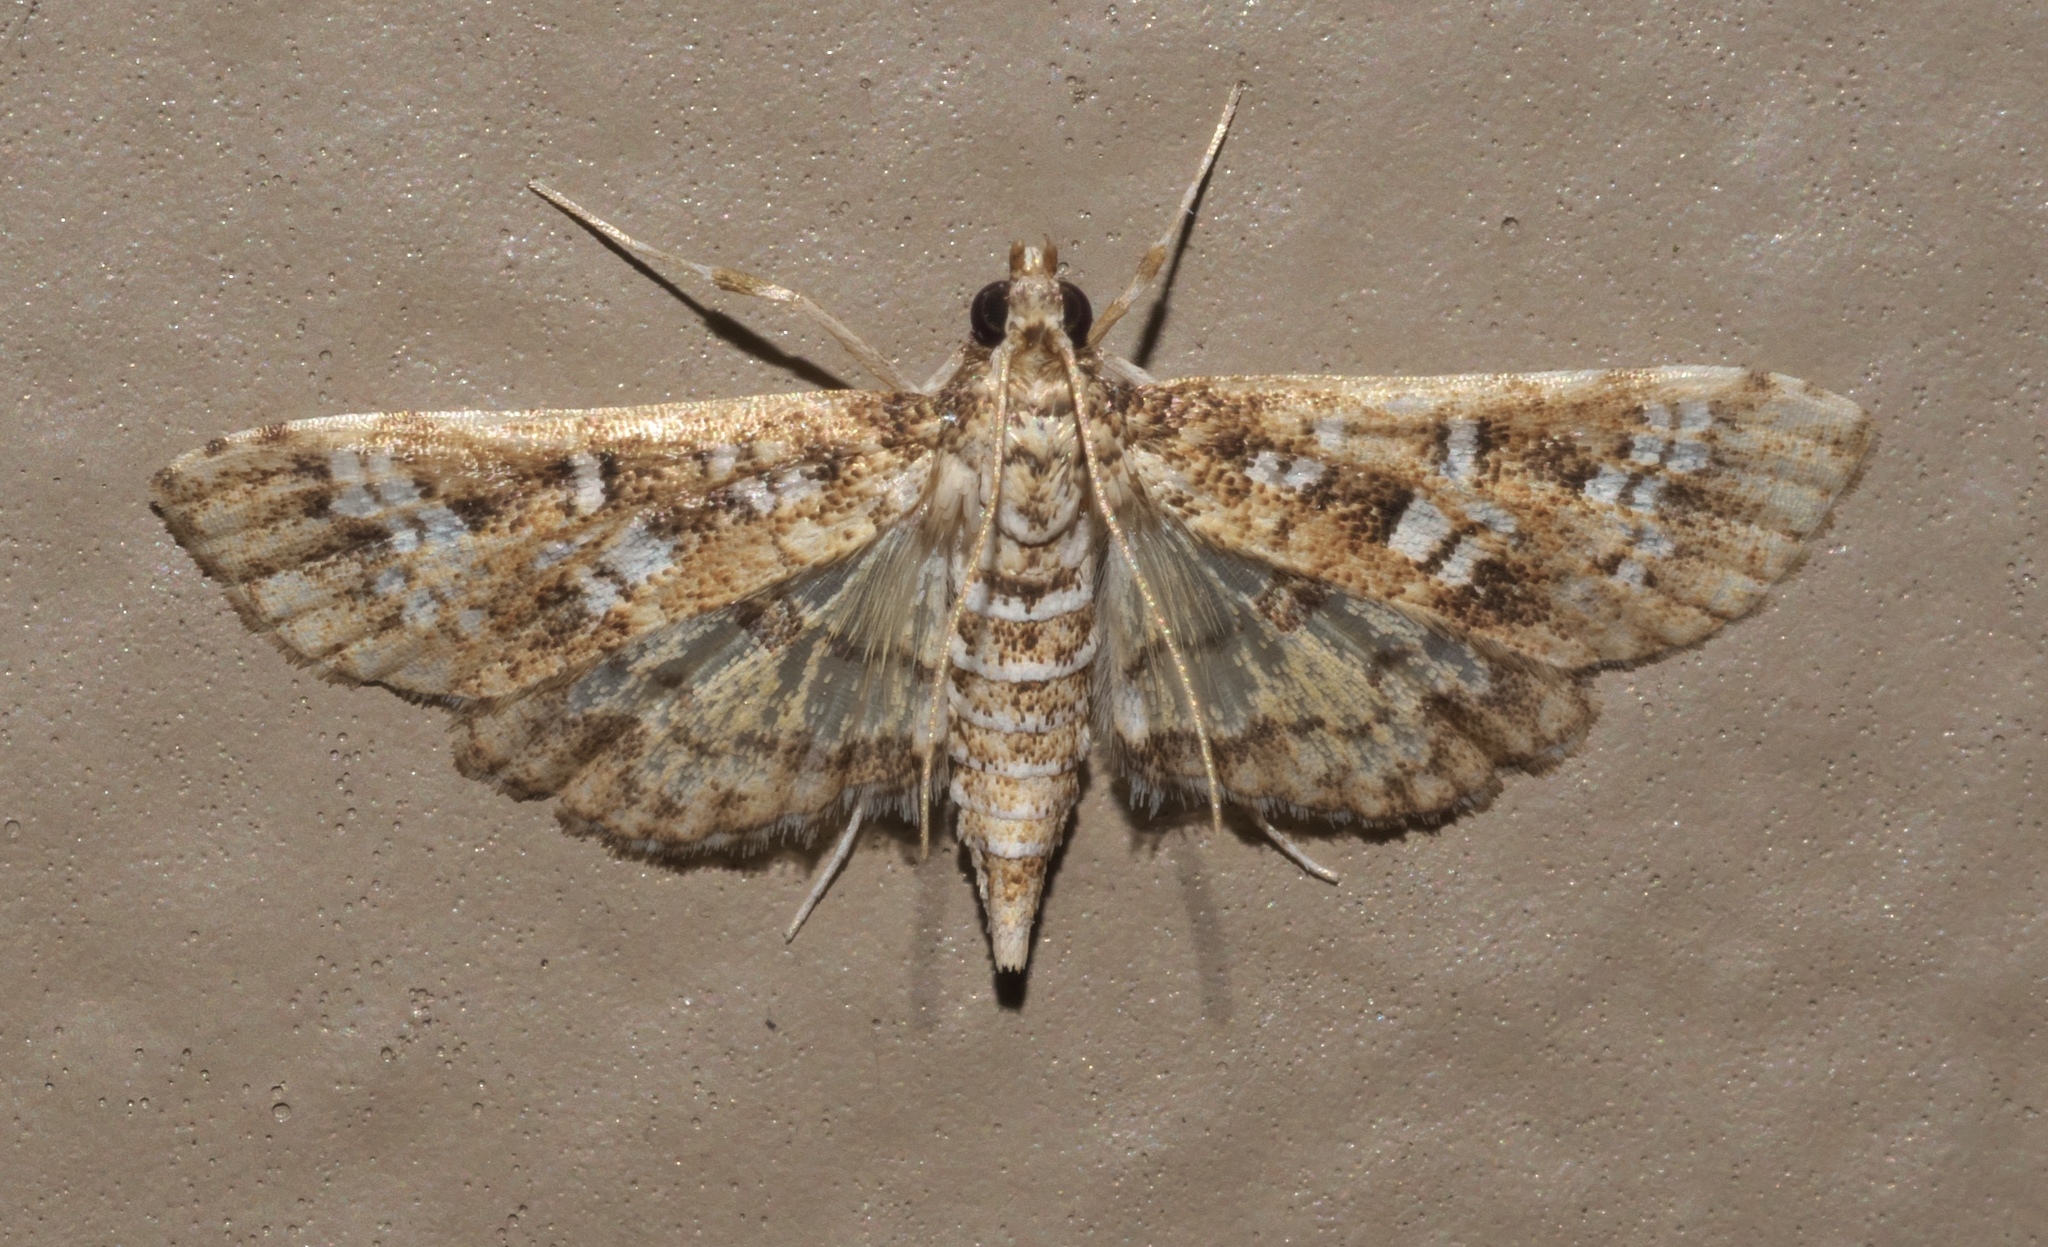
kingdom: Animalia
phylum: Arthropoda
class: Insecta
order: Lepidoptera
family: Crambidae
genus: Samea
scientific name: Samea multiplicalis
